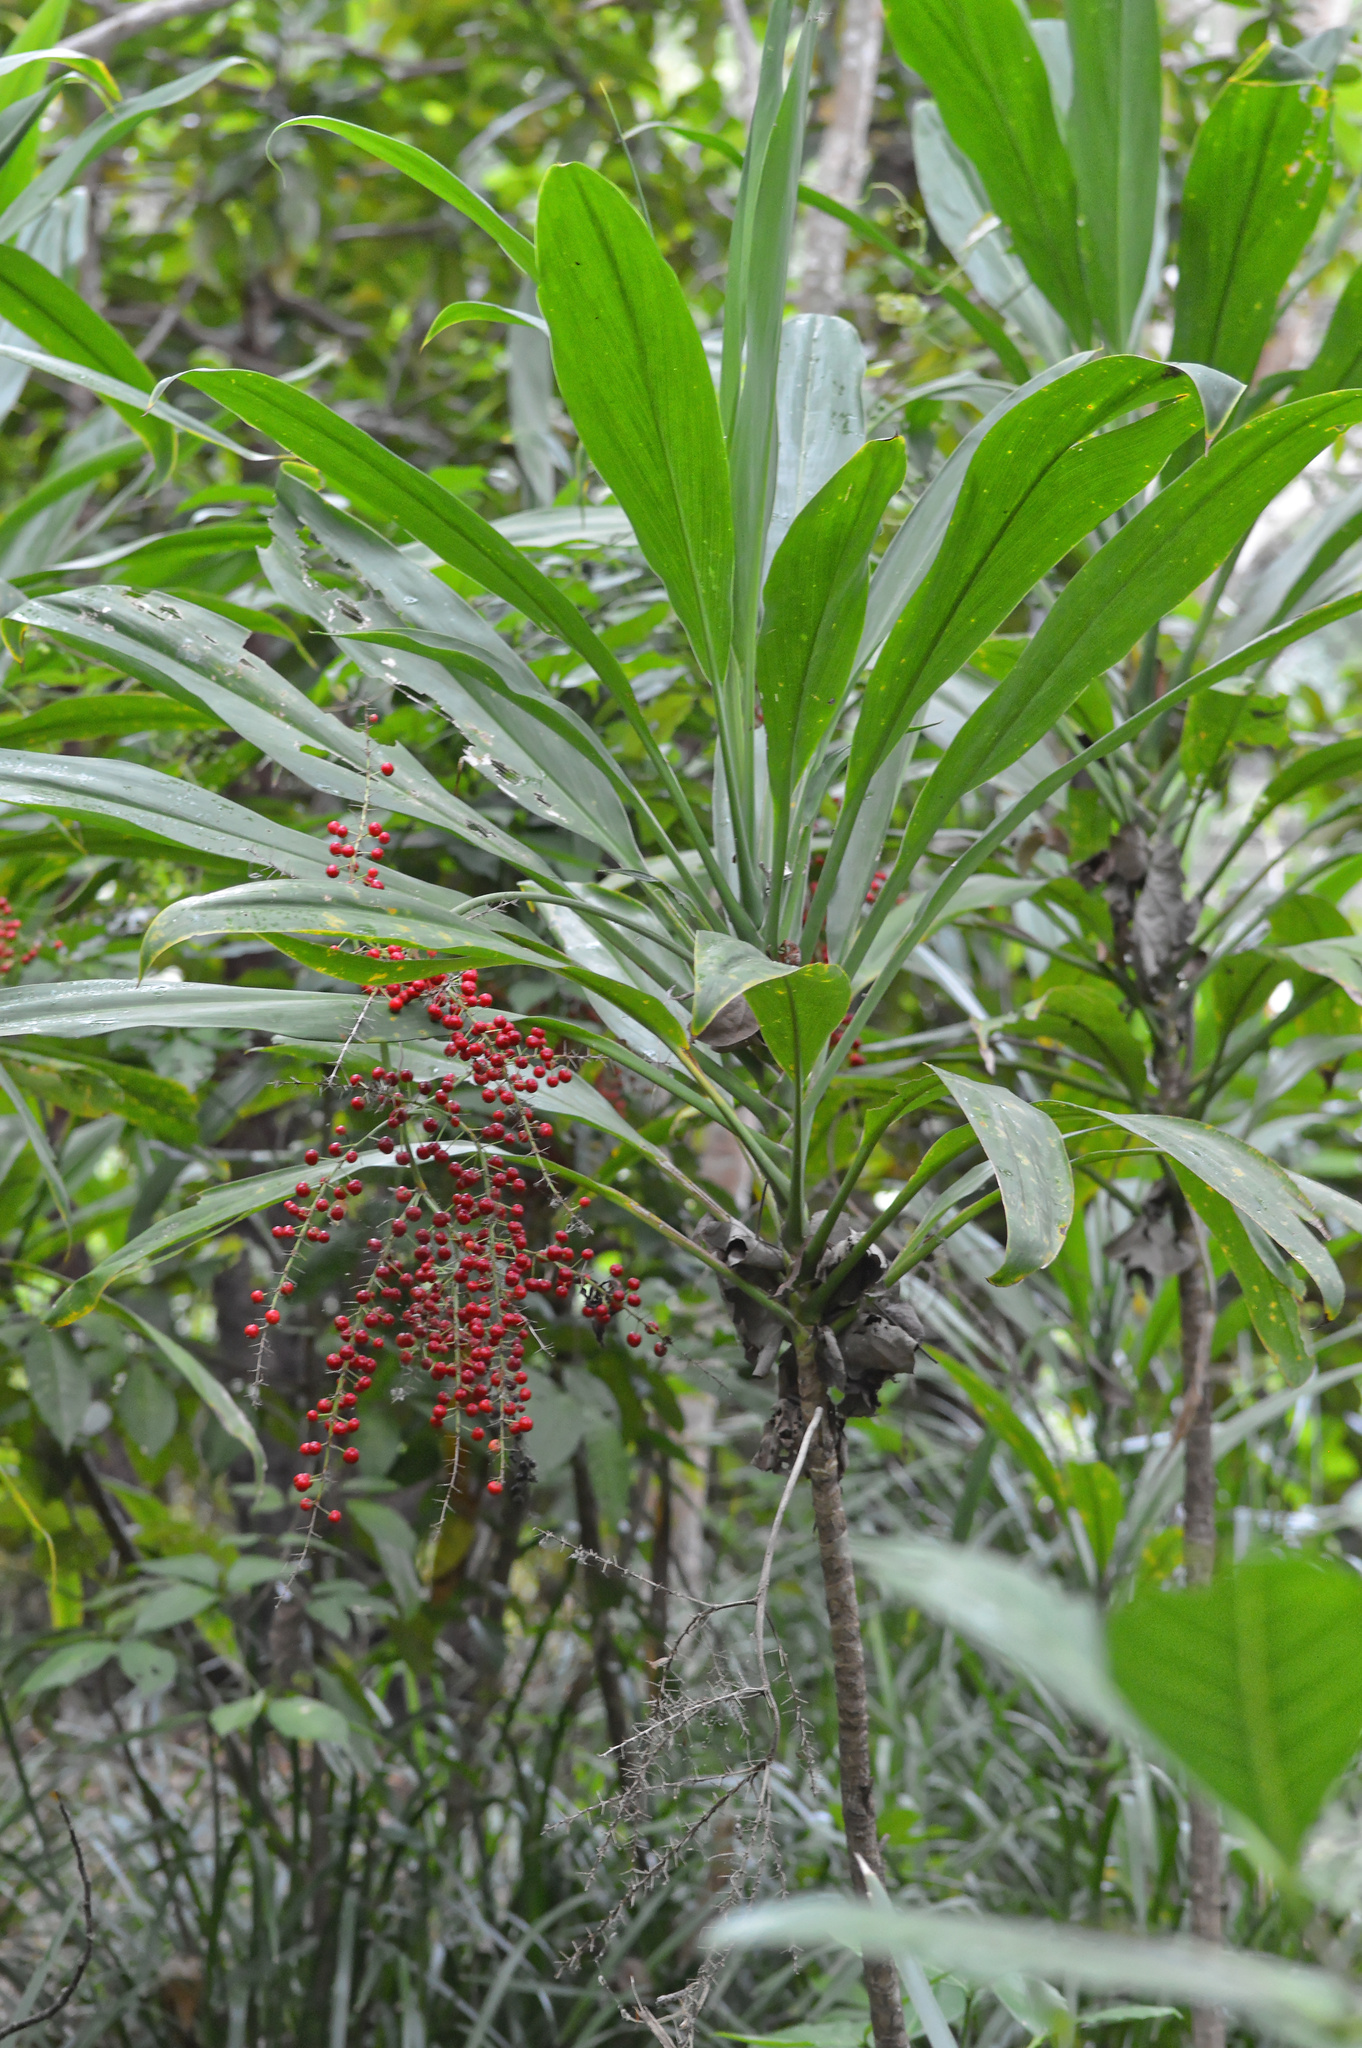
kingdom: Plantae
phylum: Tracheophyta
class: Liliopsida
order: Asparagales
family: Asparagaceae
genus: Cordyline
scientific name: Cordyline manners-suttoniae
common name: Giant palm-lily
